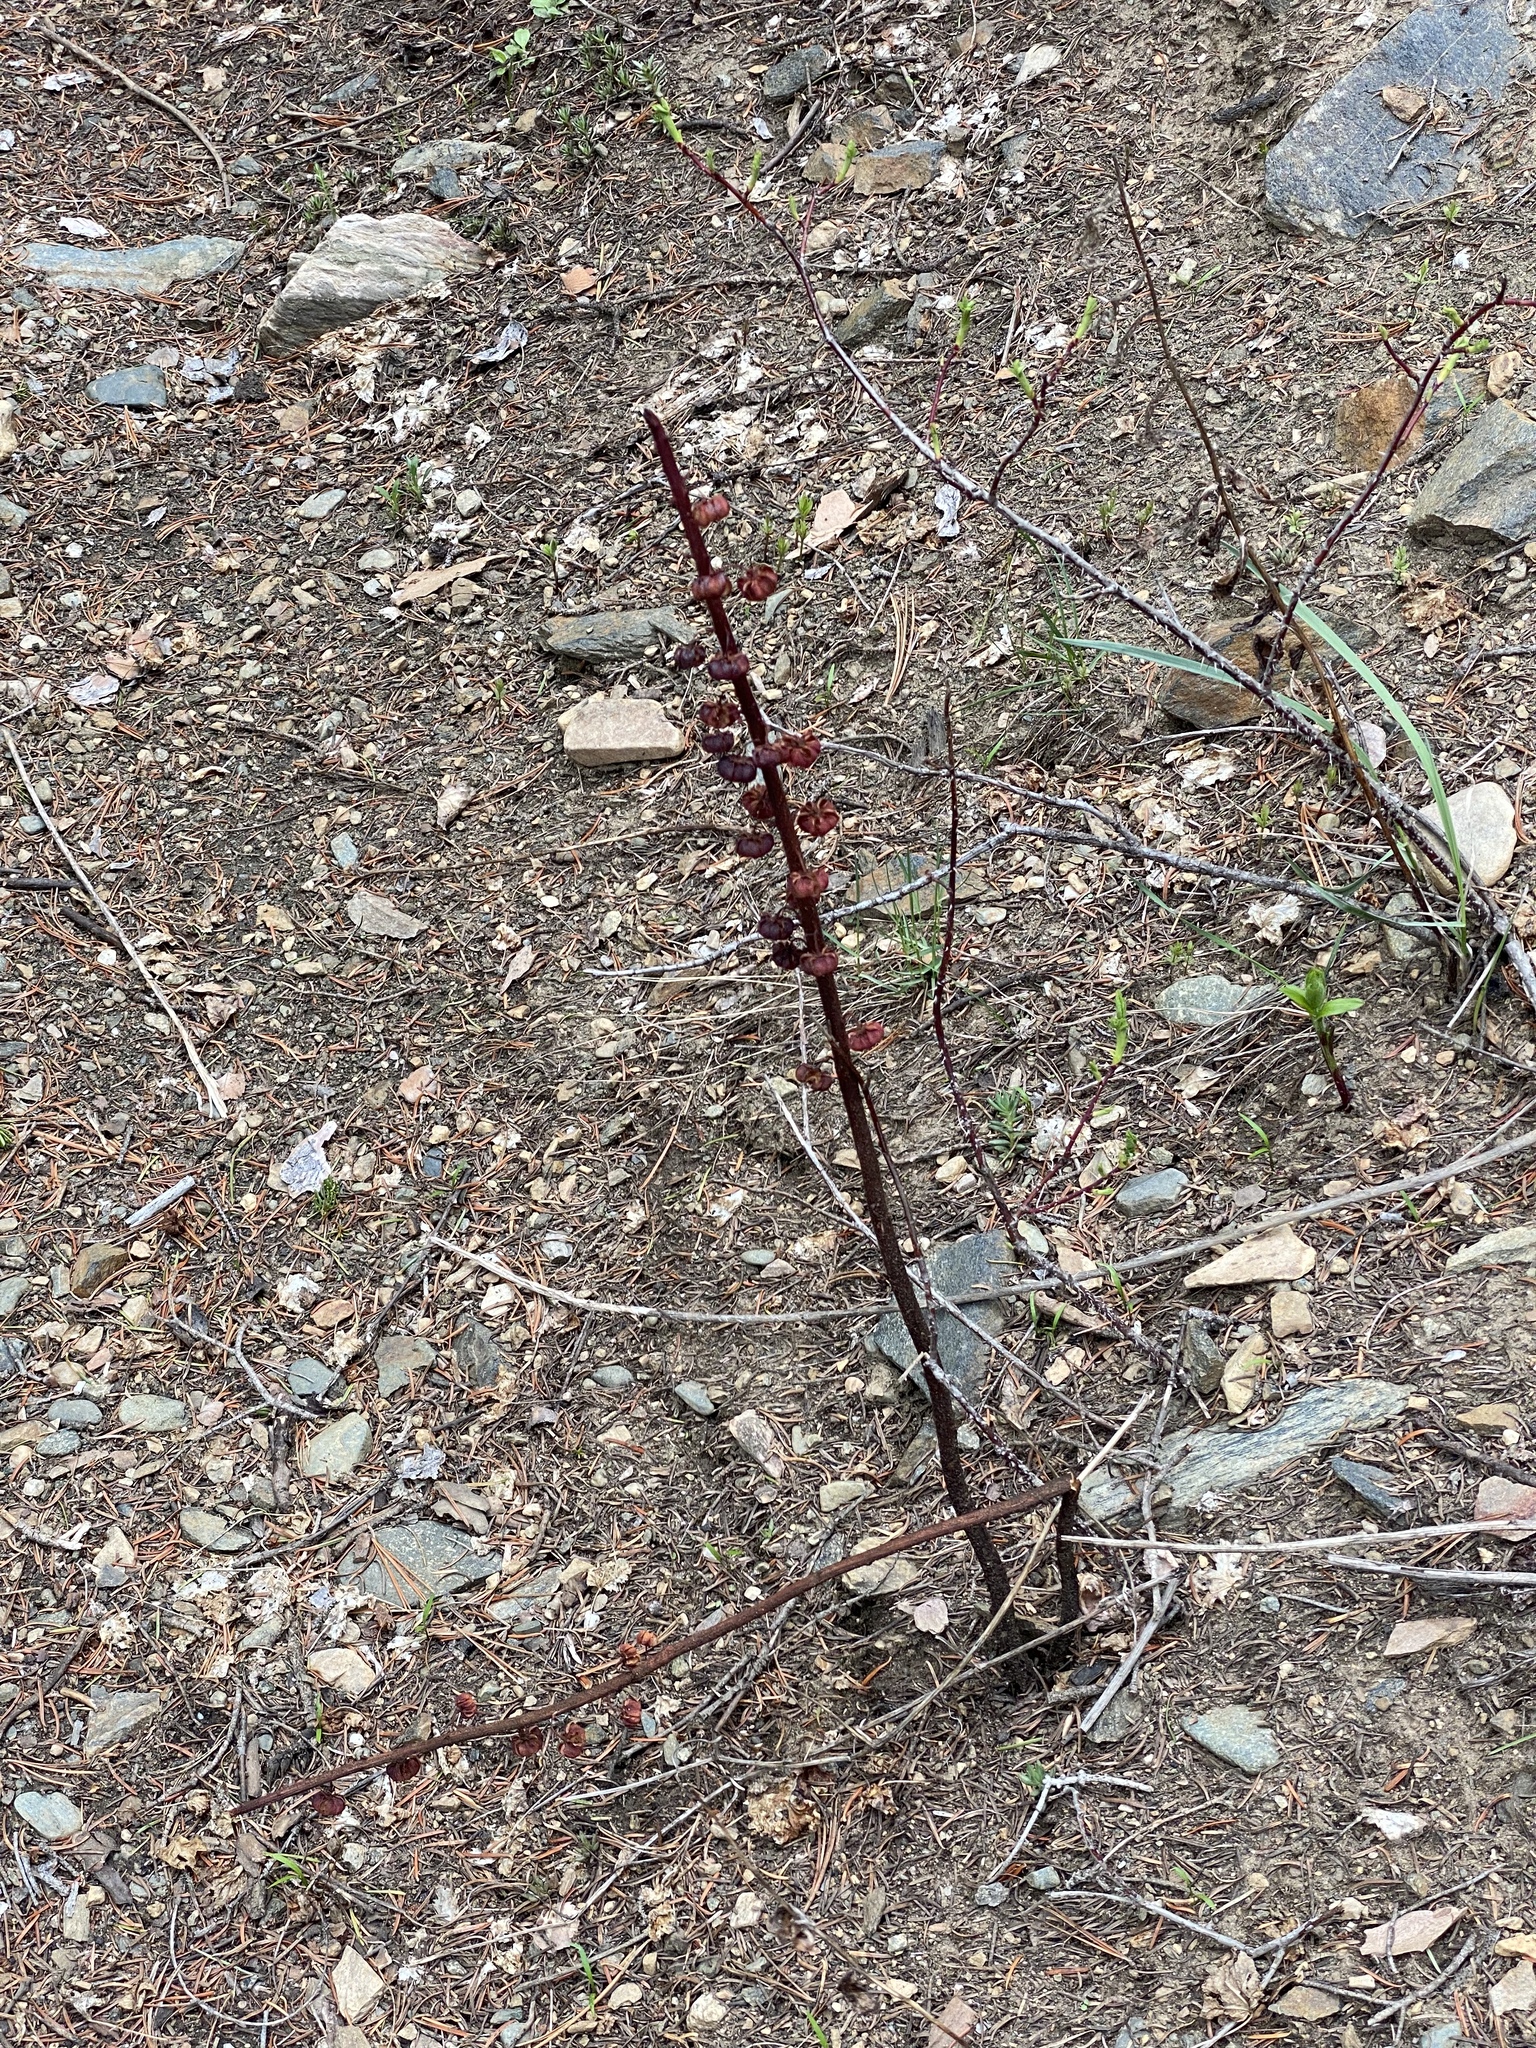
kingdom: Plantae
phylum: Tracheophyta
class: Magnoliopsida
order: Ericales
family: Ericaceae
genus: Pterospora
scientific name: Pterospora andromedea
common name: Giant bird's-nest
